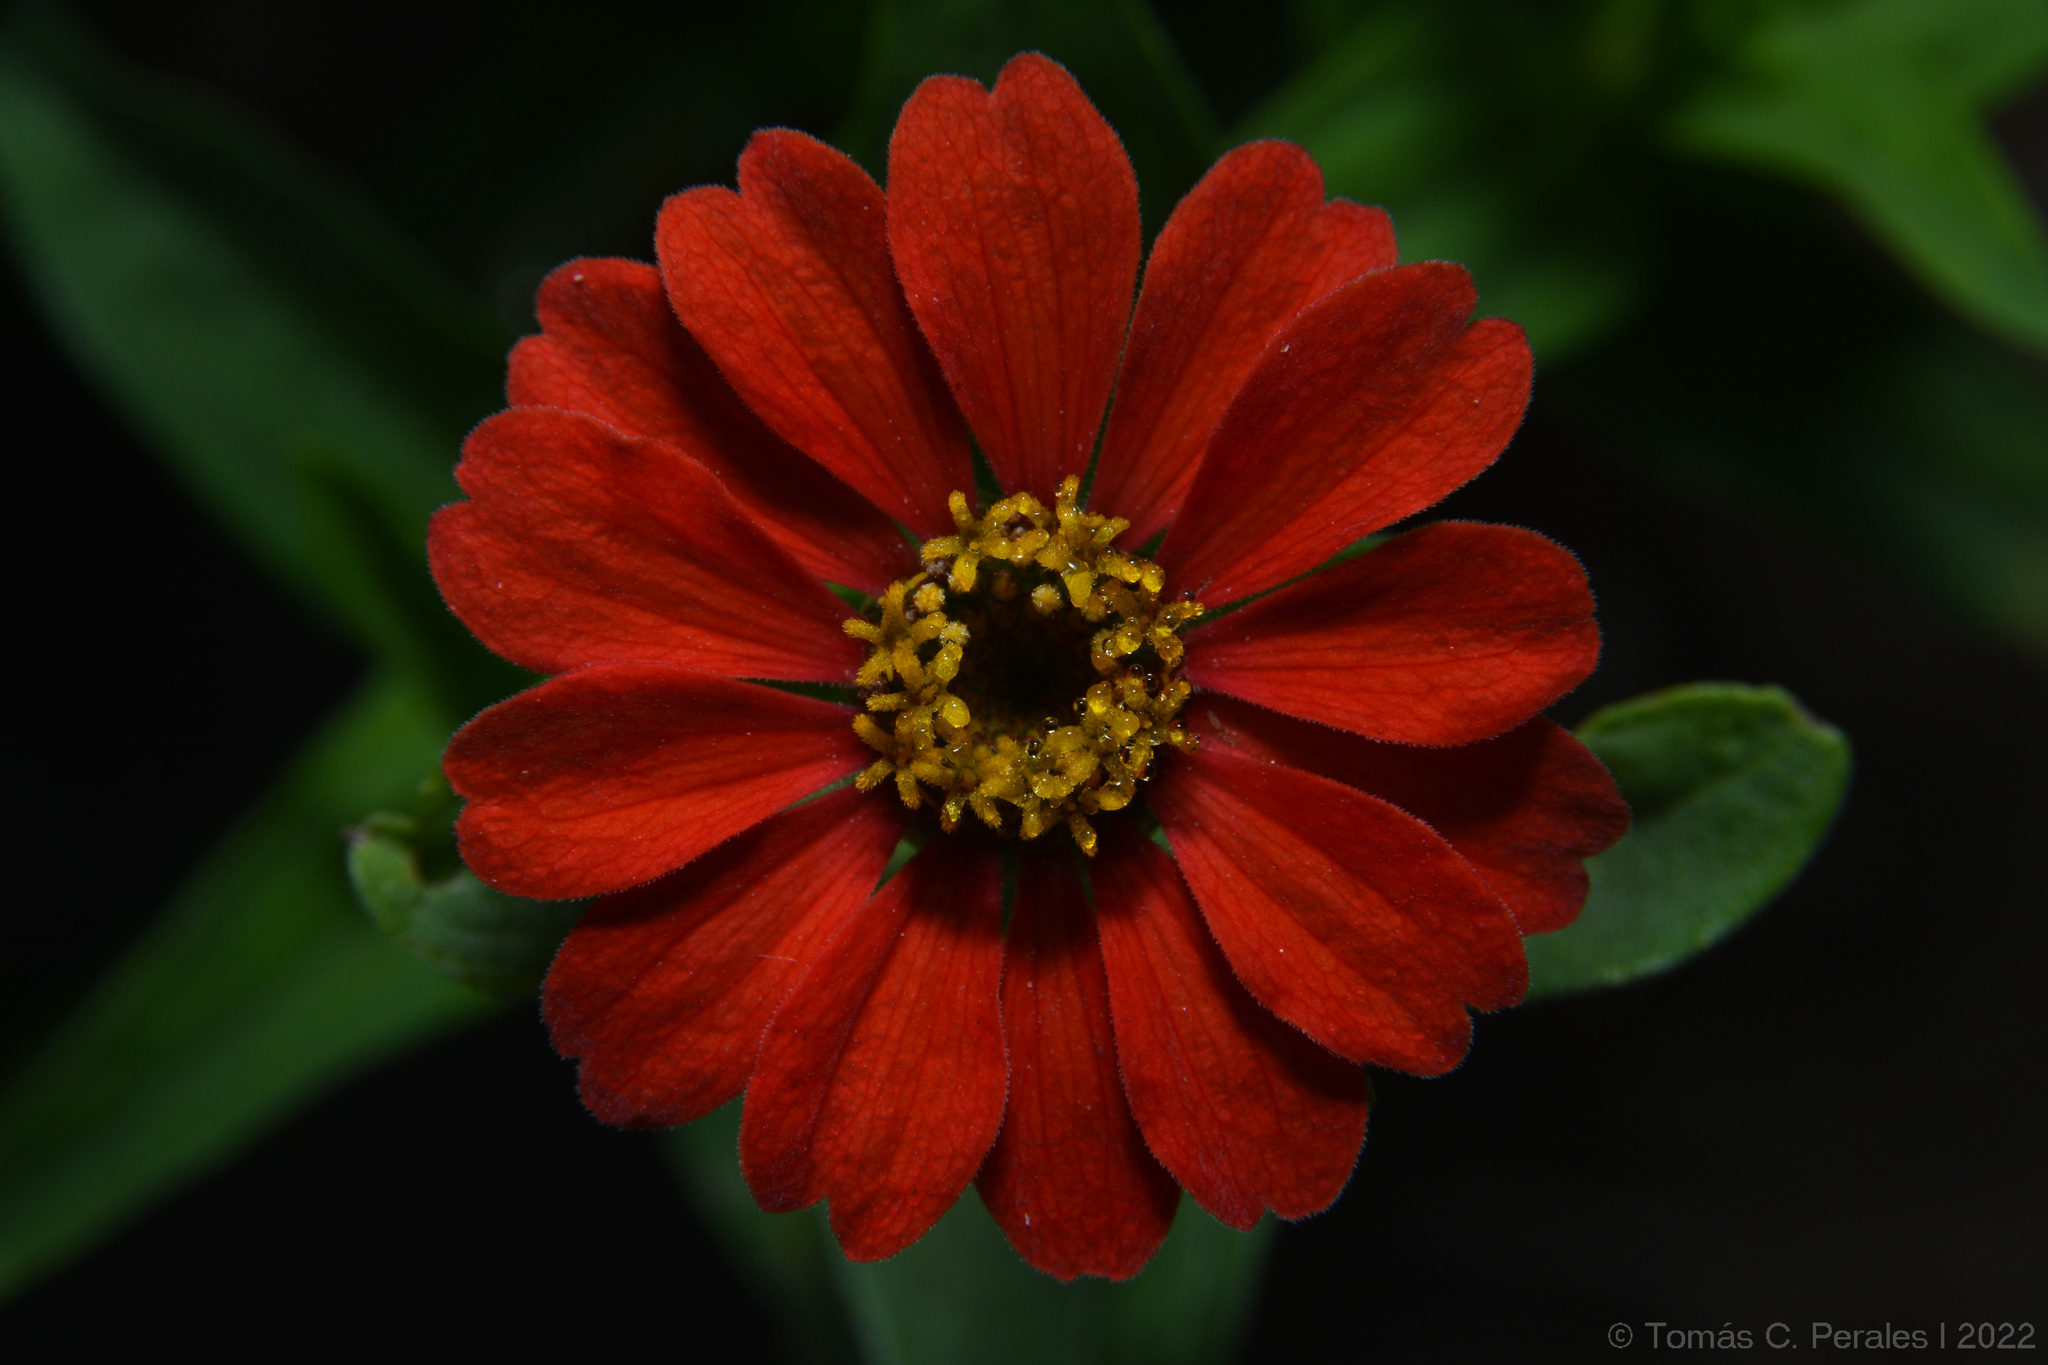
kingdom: Plantae
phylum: Tracheophyta
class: Magnoliopsida
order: Asterales
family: Asteraceae
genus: Zinnia
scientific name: Zinnia peruviana
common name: Peruvian zinnia
